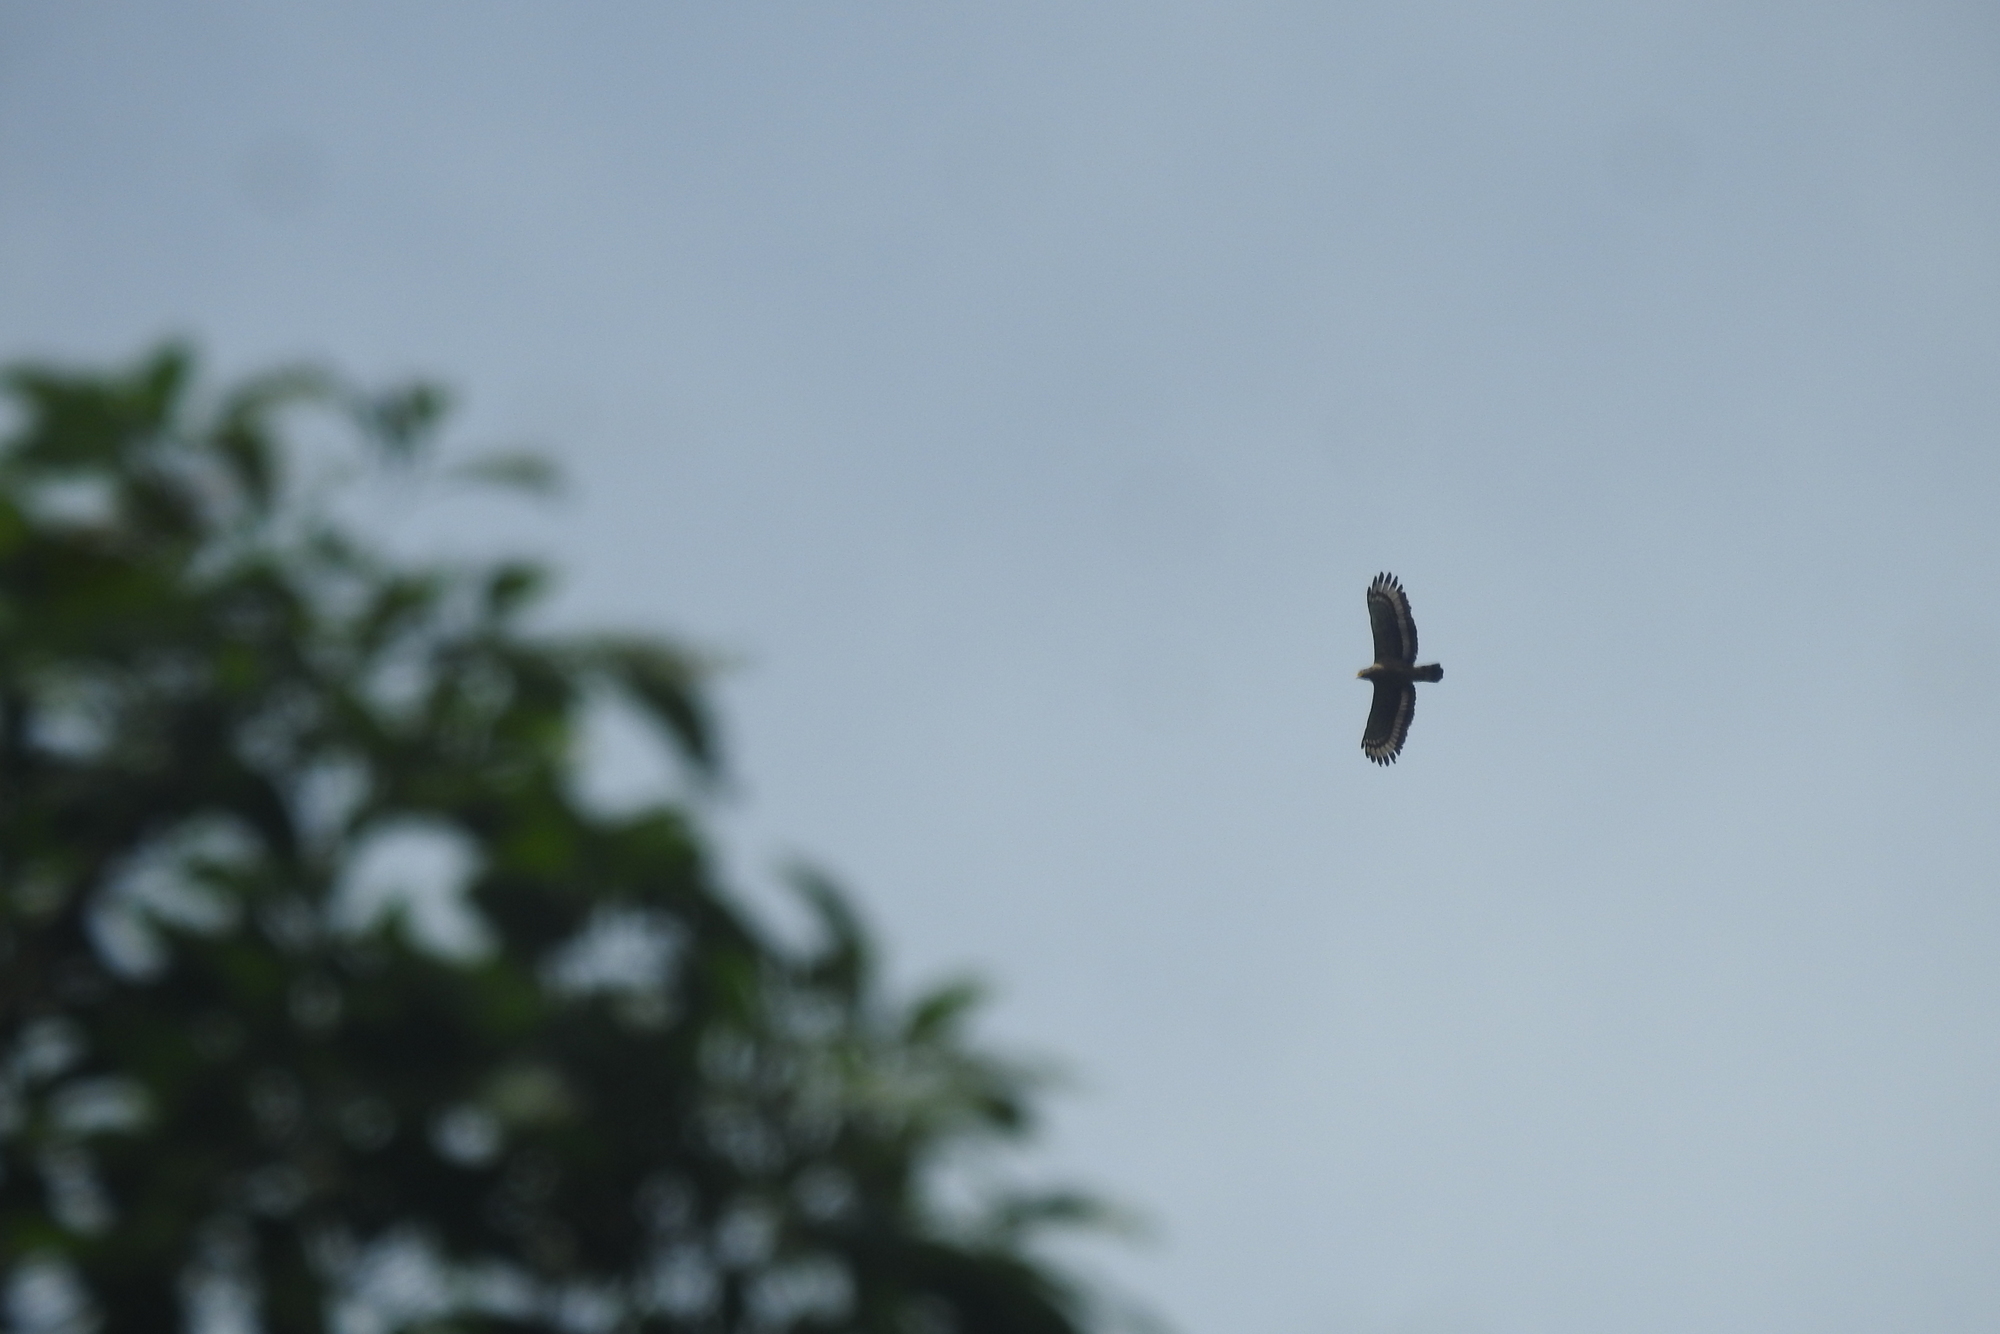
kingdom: Animalia
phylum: Chordata
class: Aves
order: Accipitriformes
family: Accipitridae
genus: Spilornis
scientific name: Spilornis cheela
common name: Crested serpent eagle
